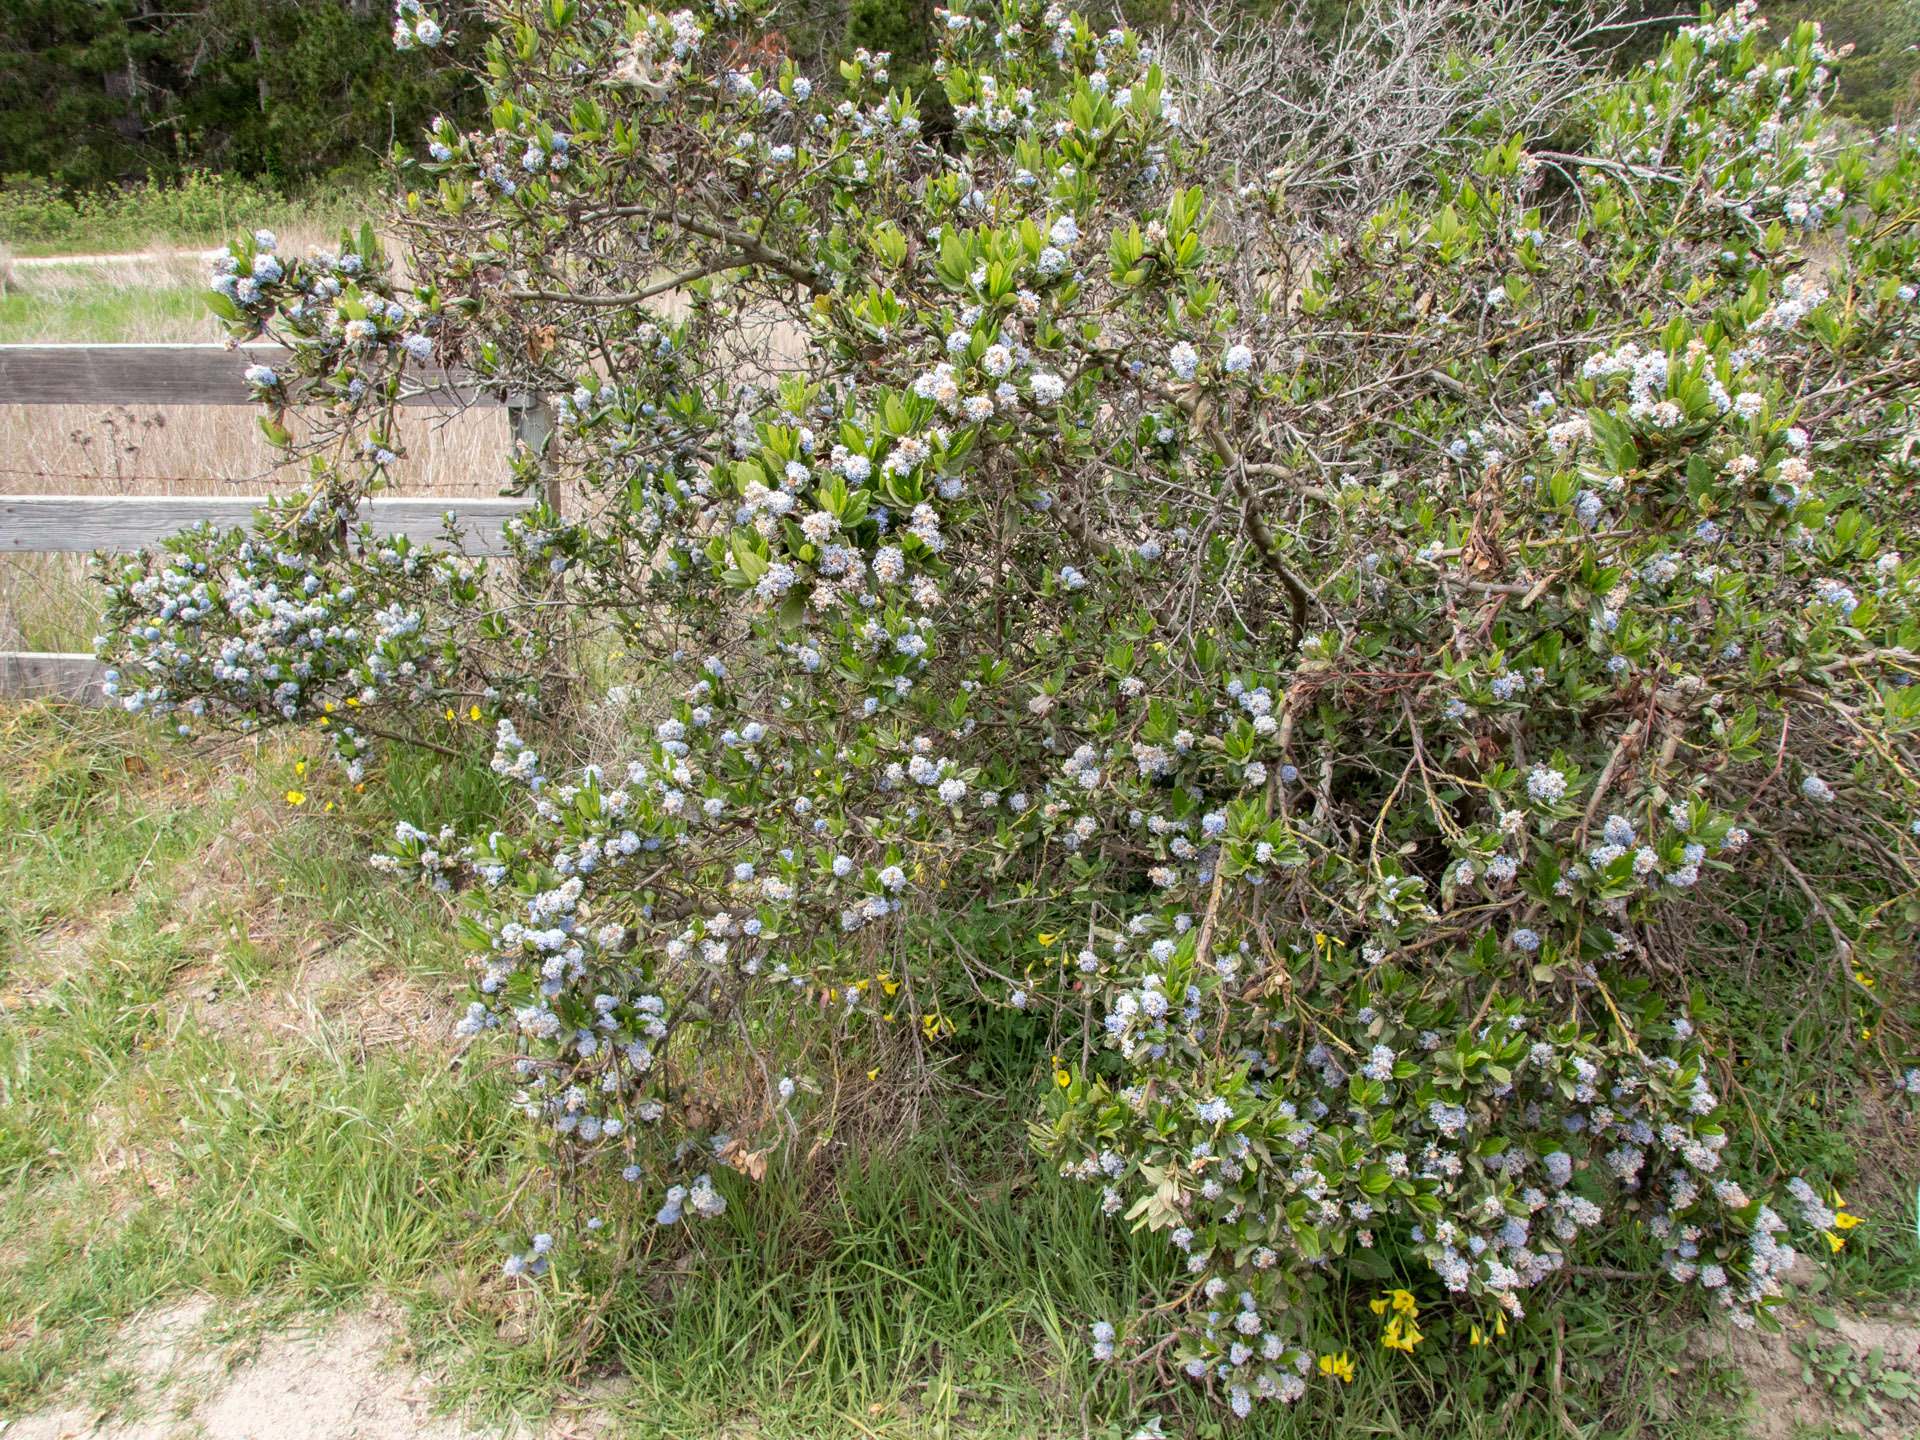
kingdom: Plantae
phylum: Tracheophyta
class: Magnoliopsida
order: Rosales
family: Rhamnaceae
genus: Ceanothus
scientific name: Ceanothus thyrsiflorus
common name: California-lilac
